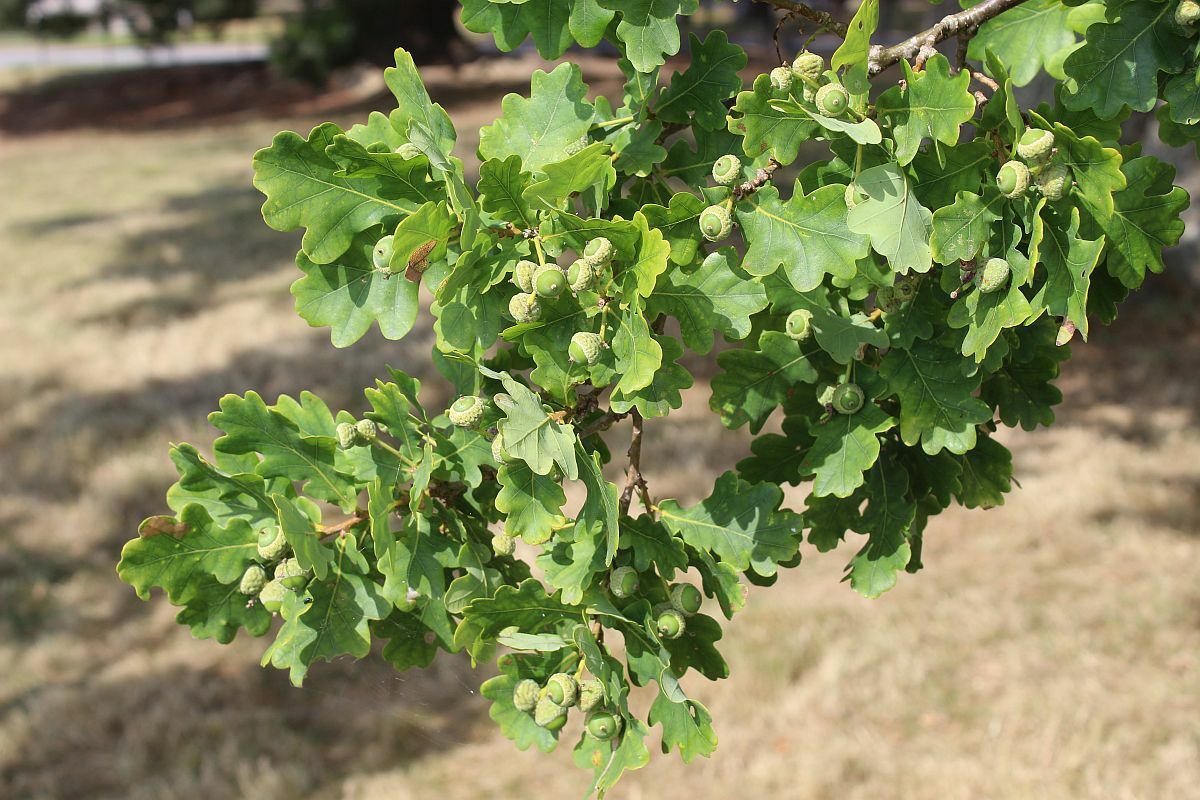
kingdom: Plantae
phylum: Tracheophyta
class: Magnoliopsida
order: Fagales
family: Fagaceae
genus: Quercus
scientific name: Quercus robur
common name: Pedunculate oak
